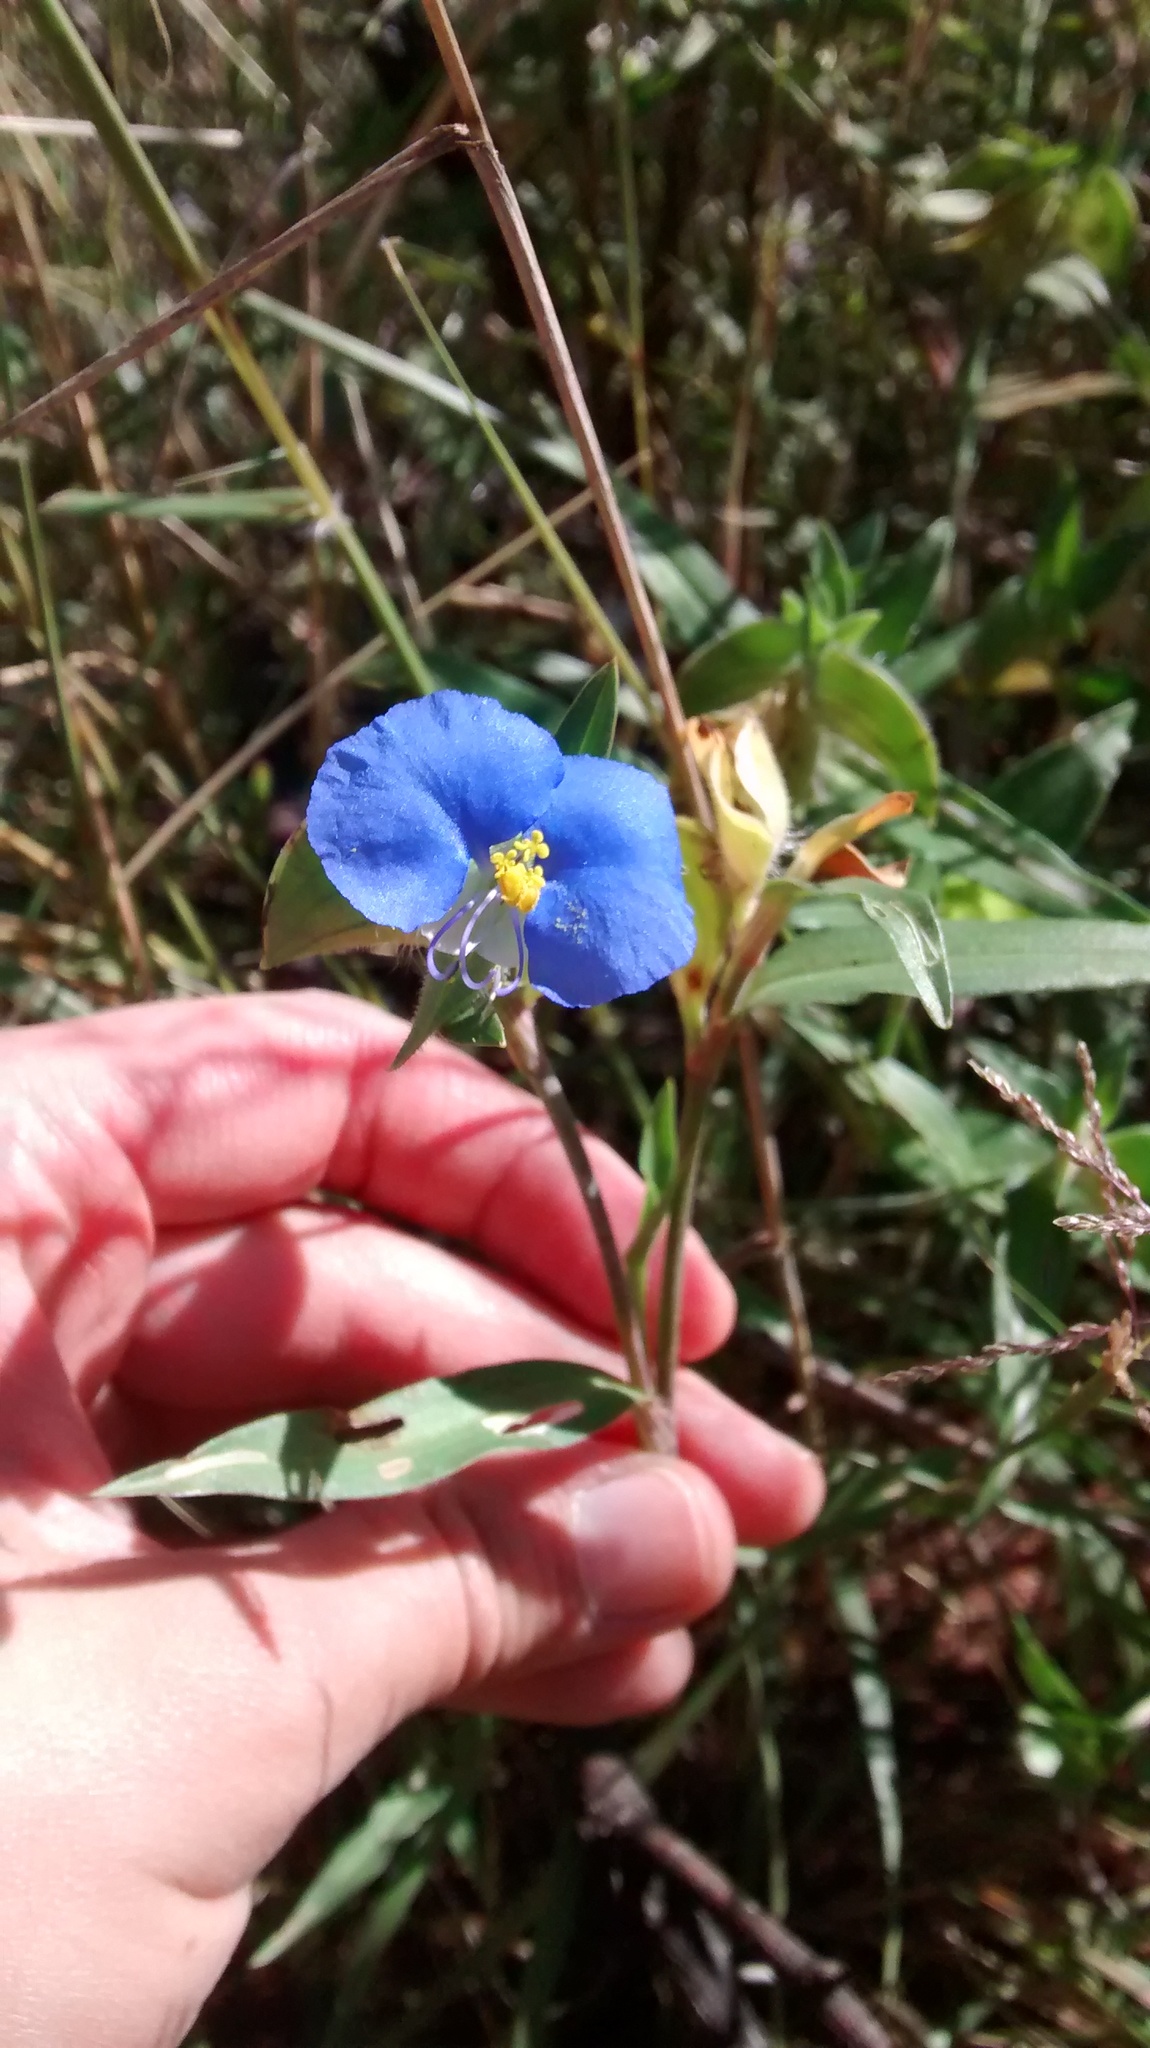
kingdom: Plantae
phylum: Tracheophyta
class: Liliopsida
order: Commelinales
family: Commelinaceae
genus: Commelina
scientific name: Commelina erecta
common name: Blousel blommetjie
